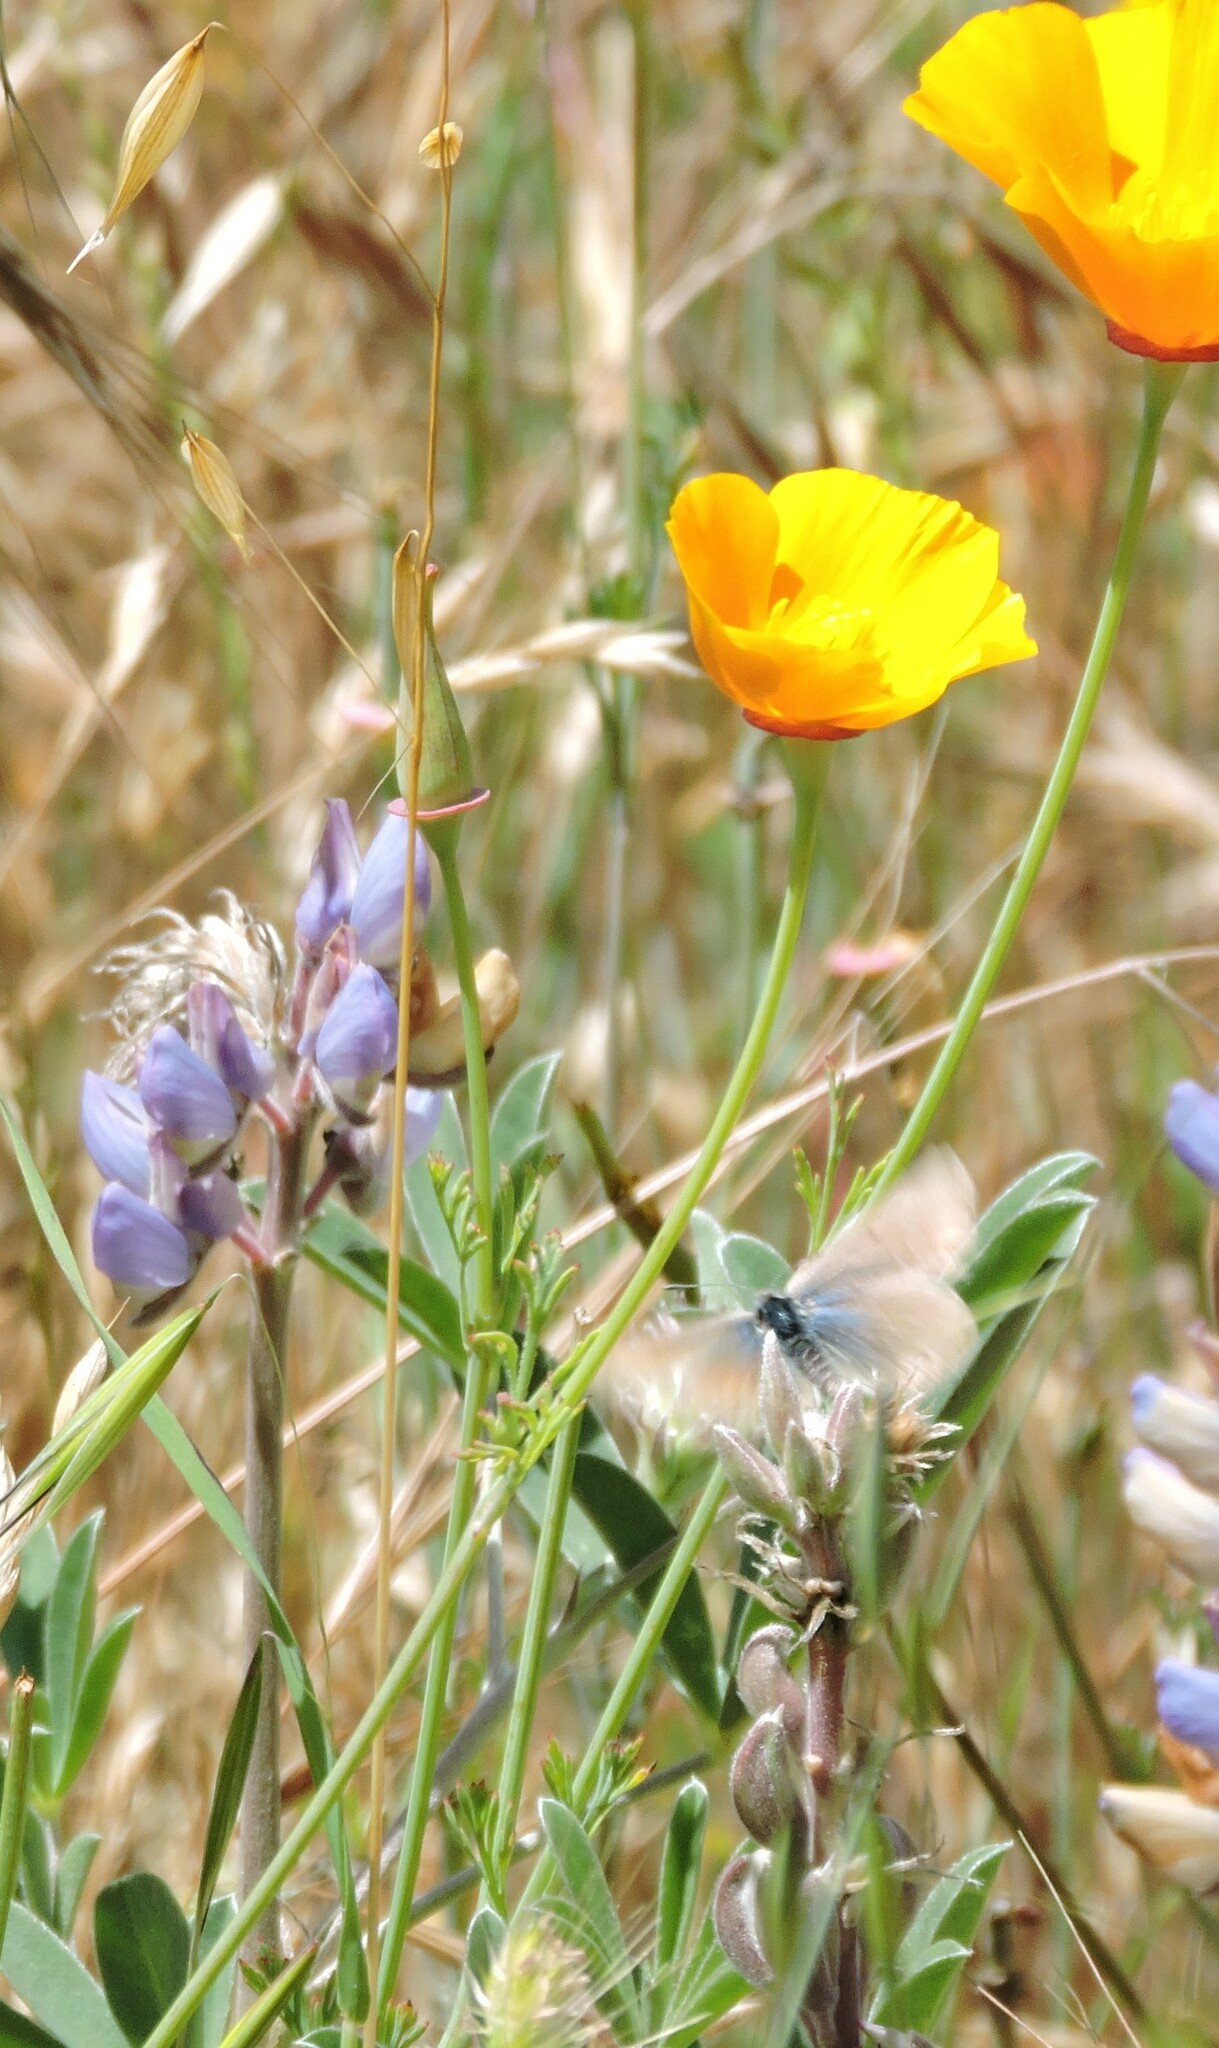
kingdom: Animalia
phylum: Arthropoda
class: Insecta
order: Lepidoptera
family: Lycaenidae
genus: Icaricia
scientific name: Icaricia icarioides
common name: Boisduval's blue
